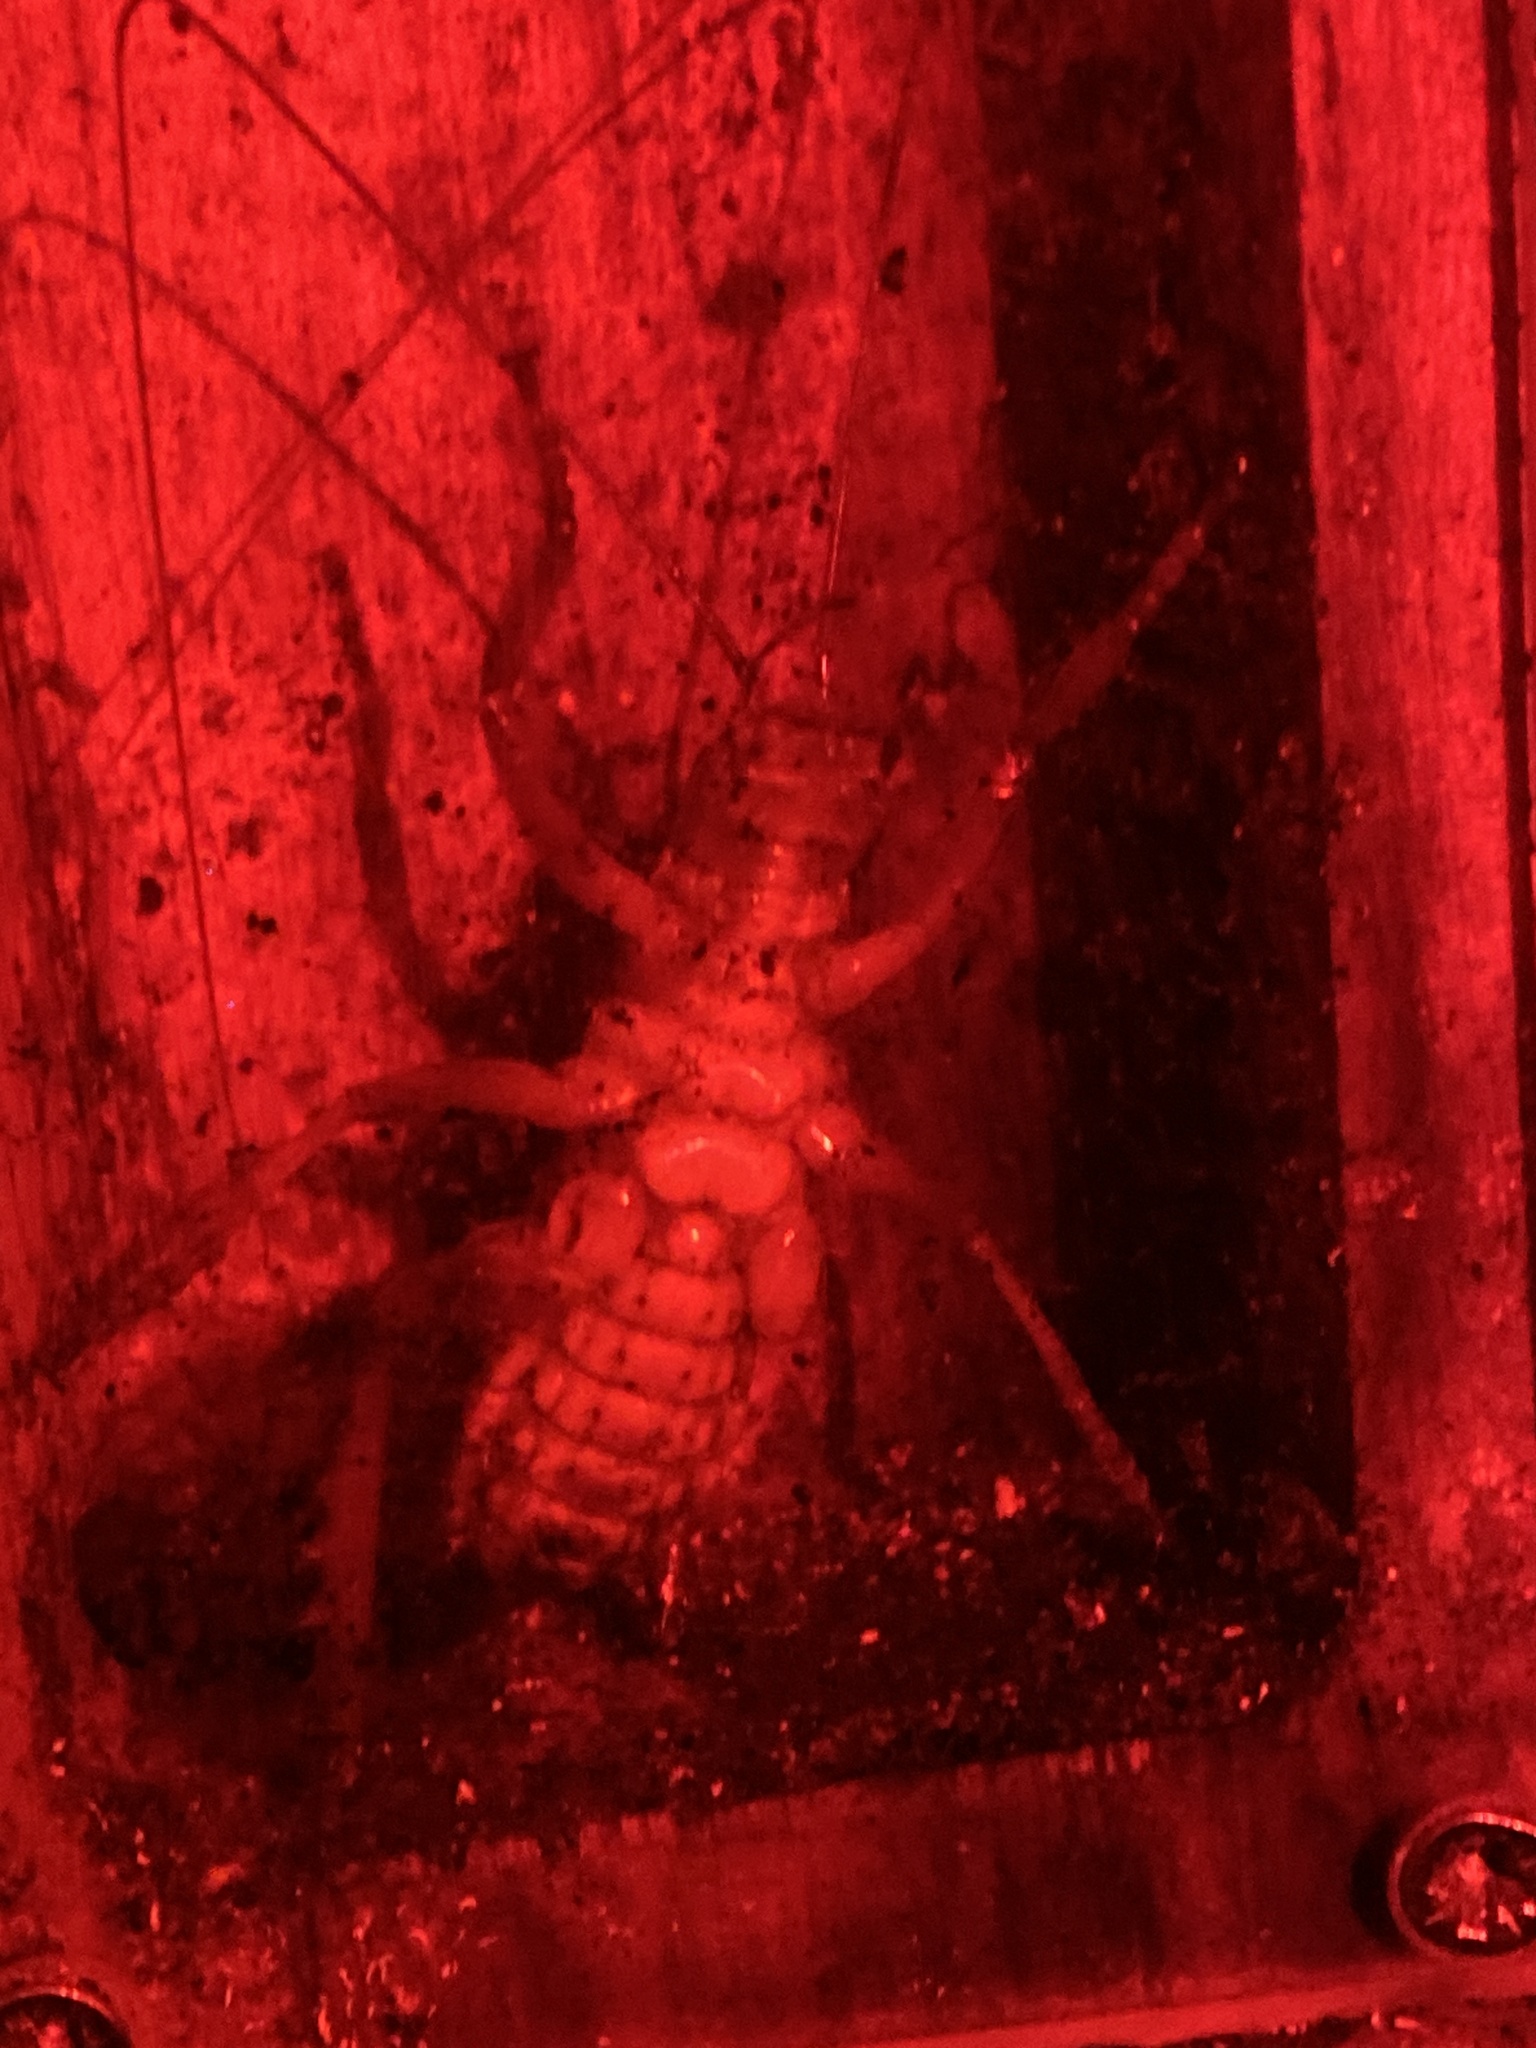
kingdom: Animalia
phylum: Arthropoda
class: Insecta
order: Orthoptera
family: Anostostomatidae
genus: Hemideina
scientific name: Hemideina crassidens
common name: Wellington tree weta
